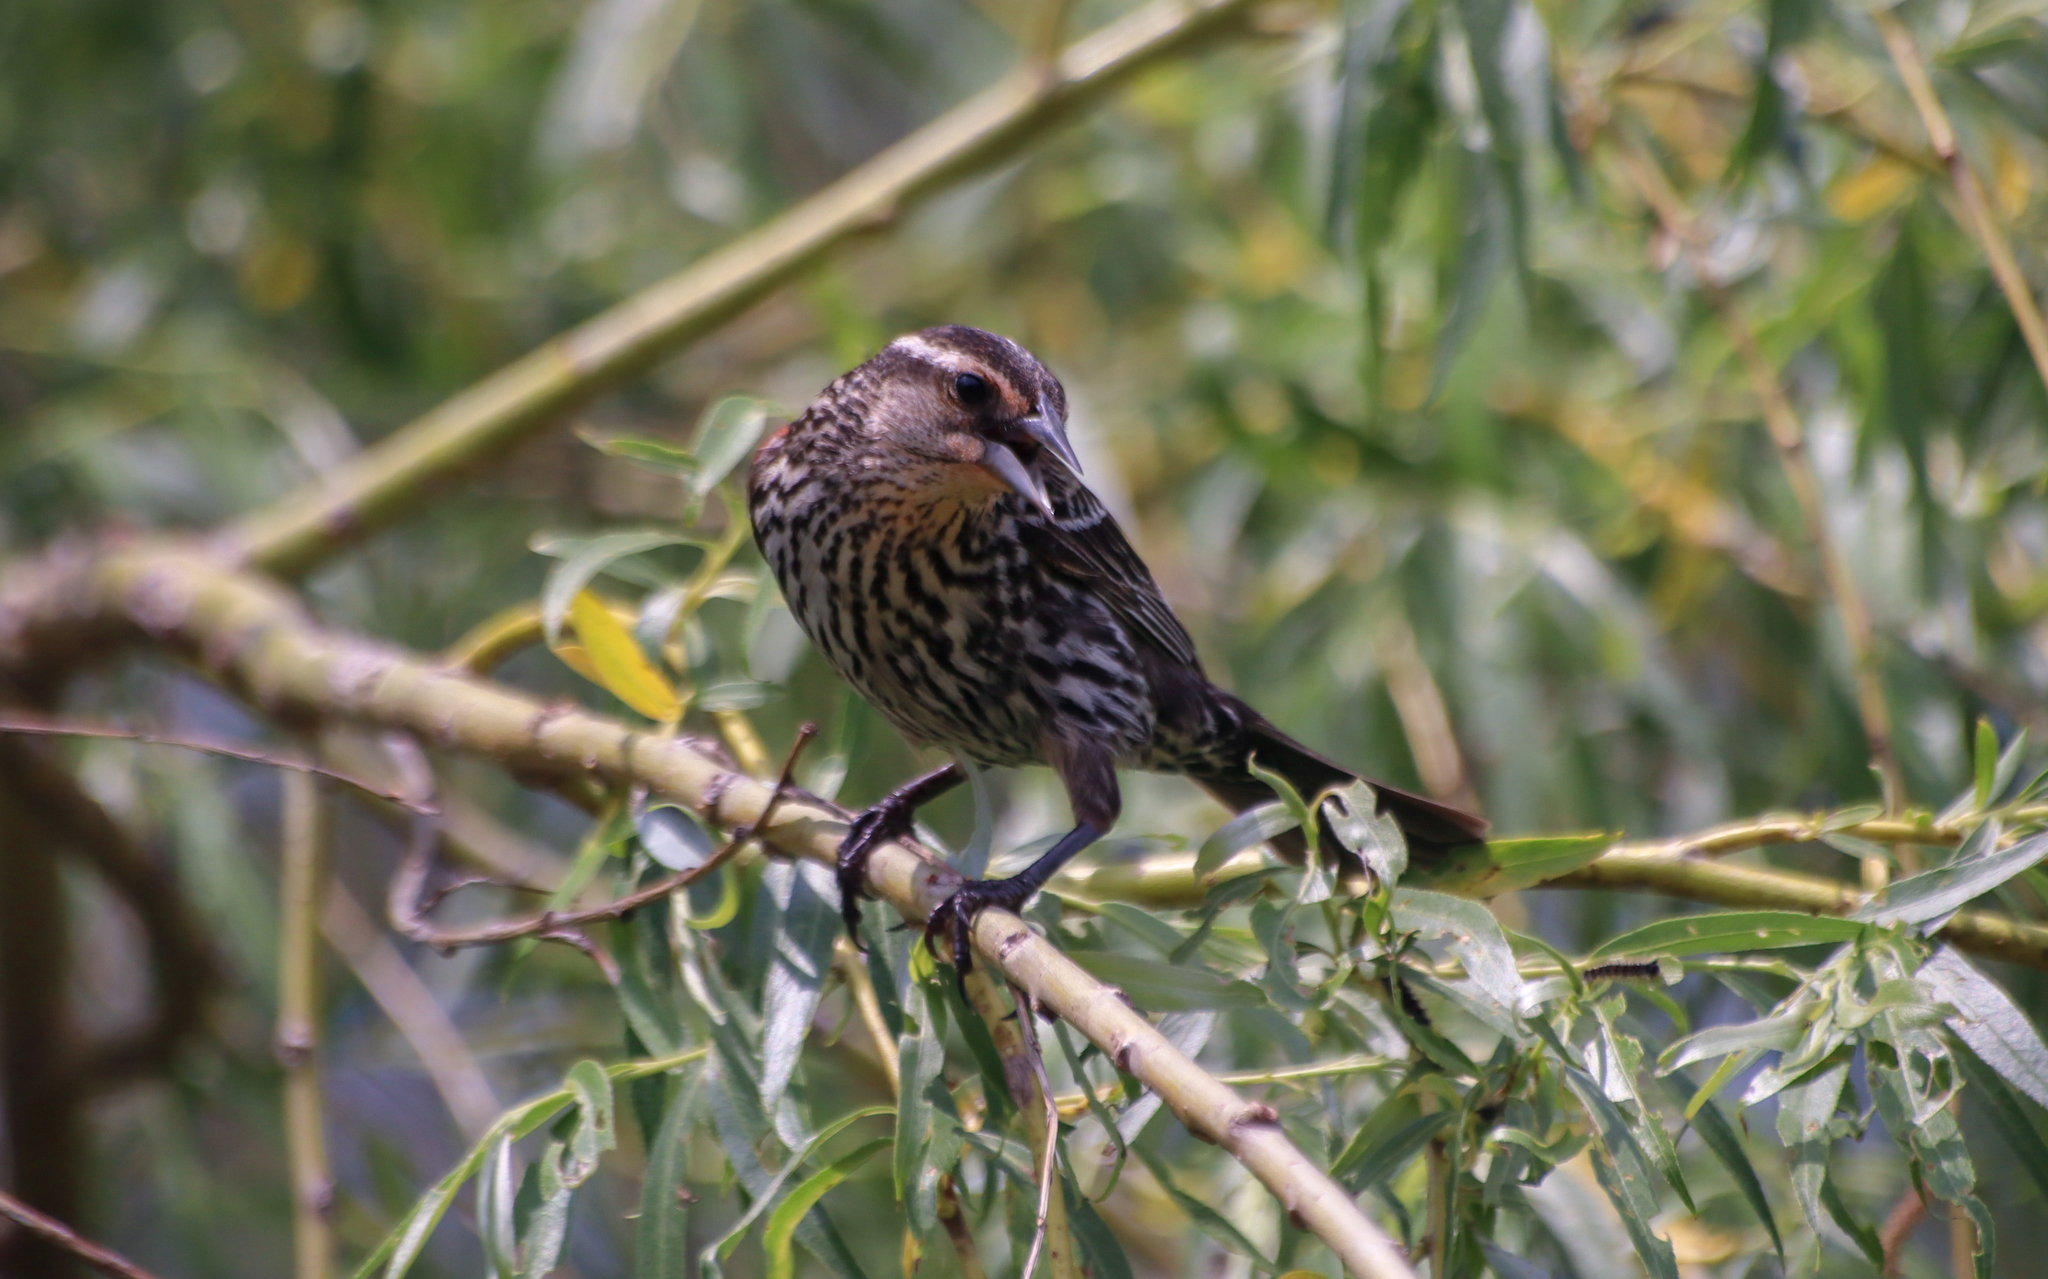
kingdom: Animalia
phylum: Chordata
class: Aves
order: Passeriformes
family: Icteridae
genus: Agelaius
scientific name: Agelaius phoeniceus
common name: Red-winged blackbird
